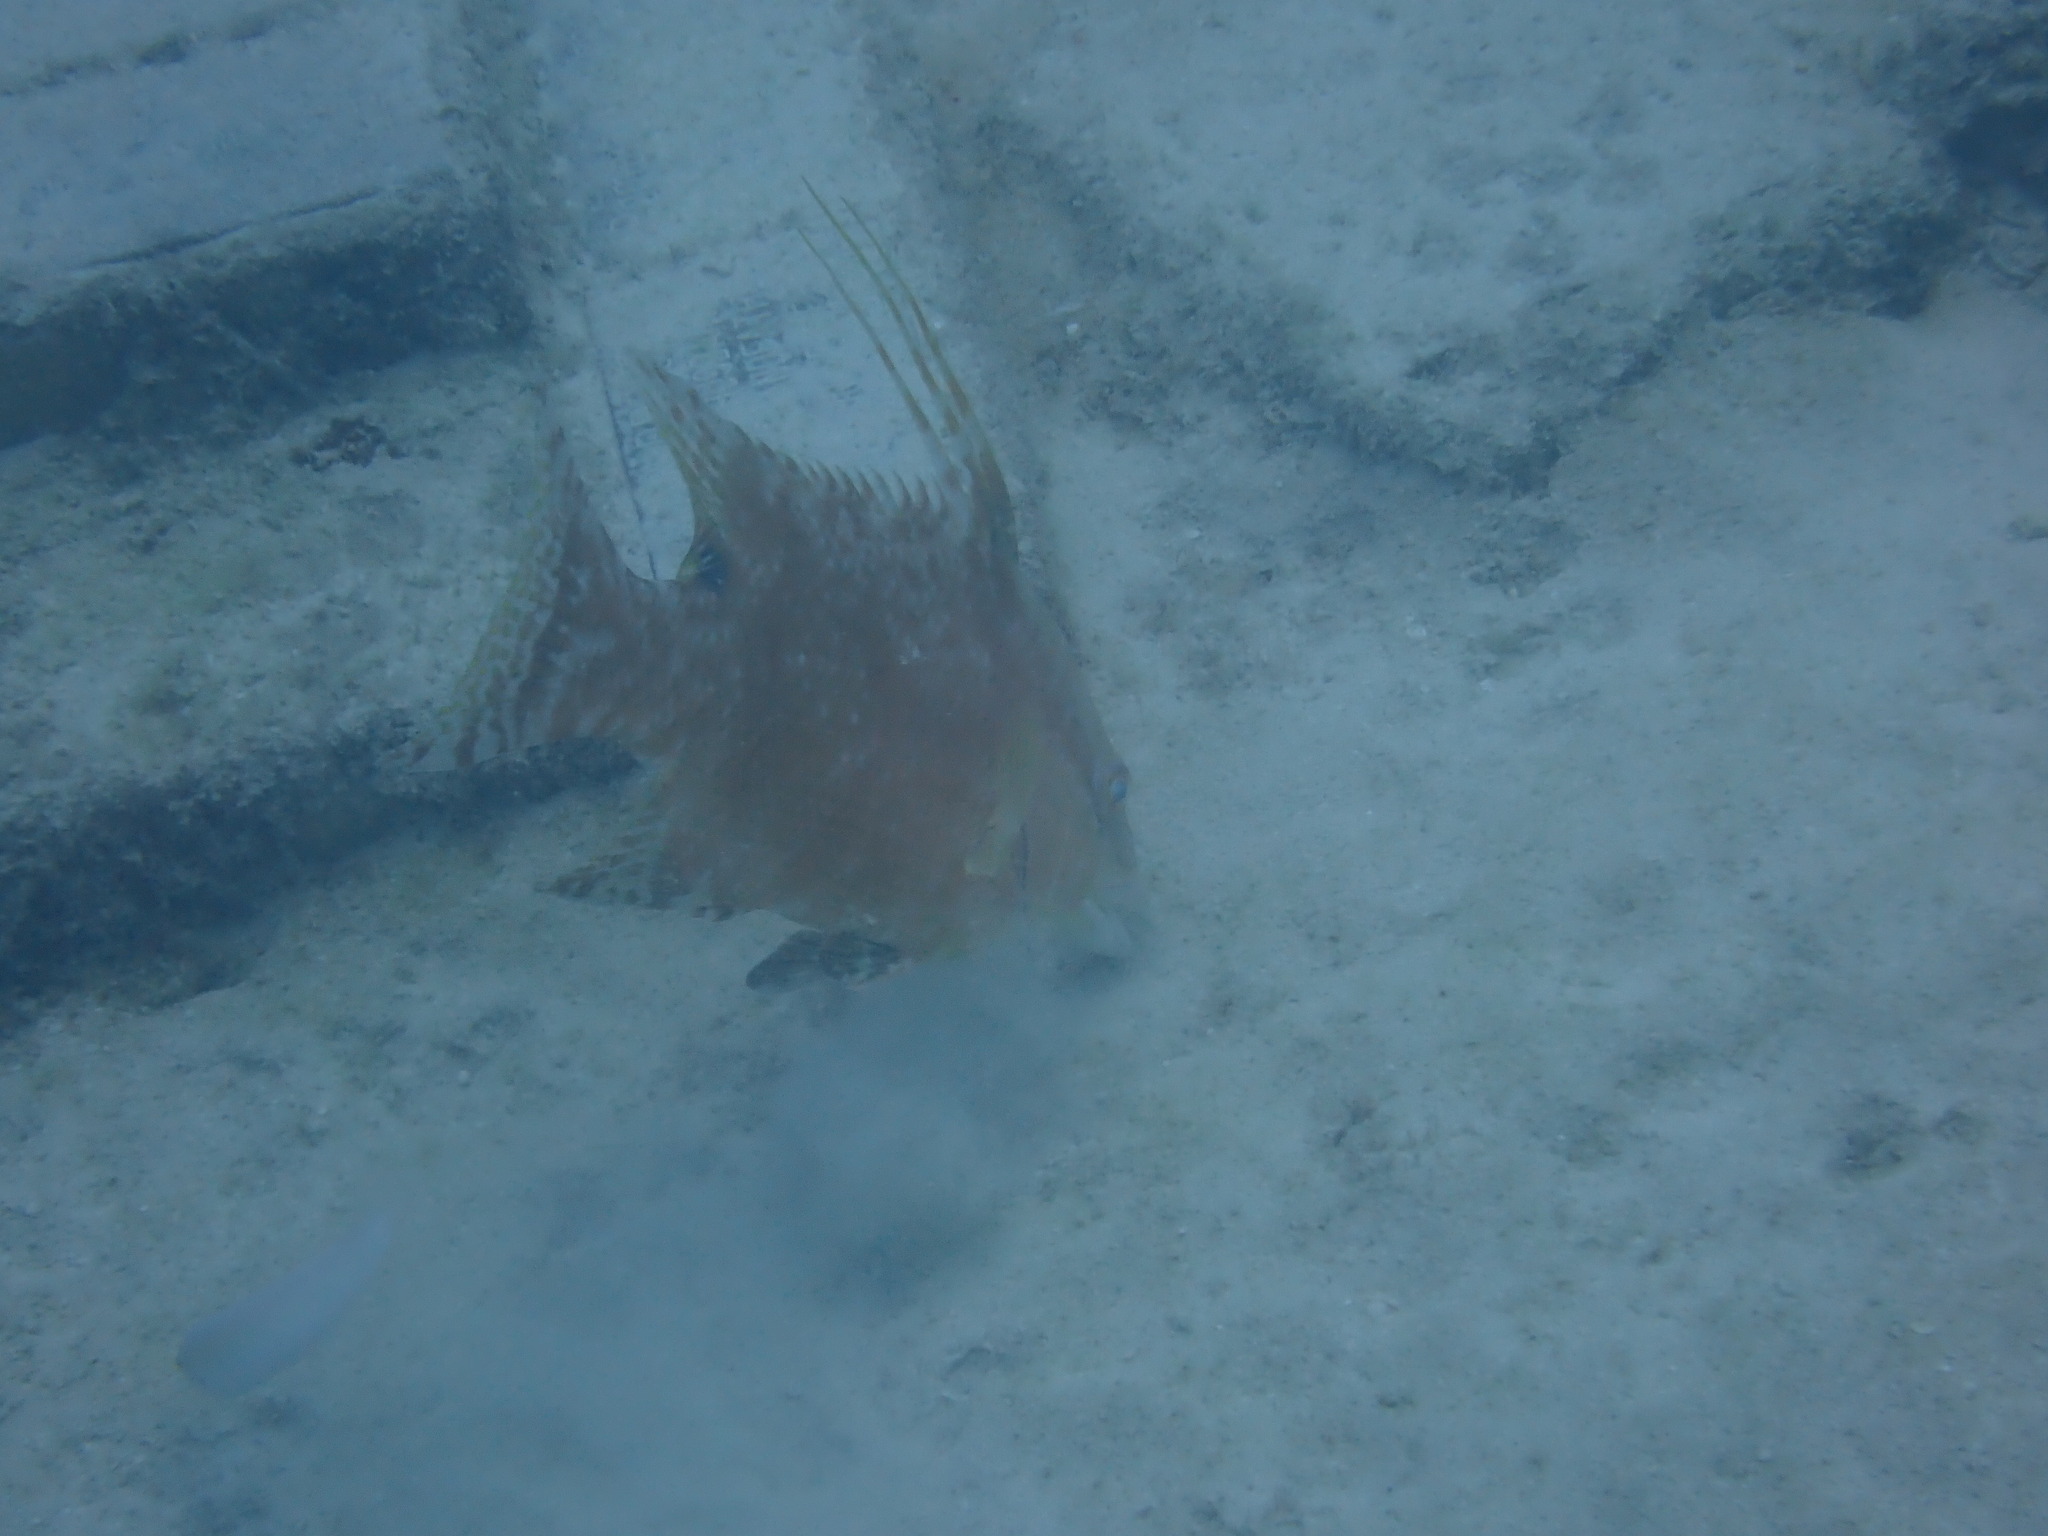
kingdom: Animalia
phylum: Chordata
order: Perciformes
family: Labridae
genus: Lachnolaimus
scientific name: Lachnolaimus maximus
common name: Hogfish
